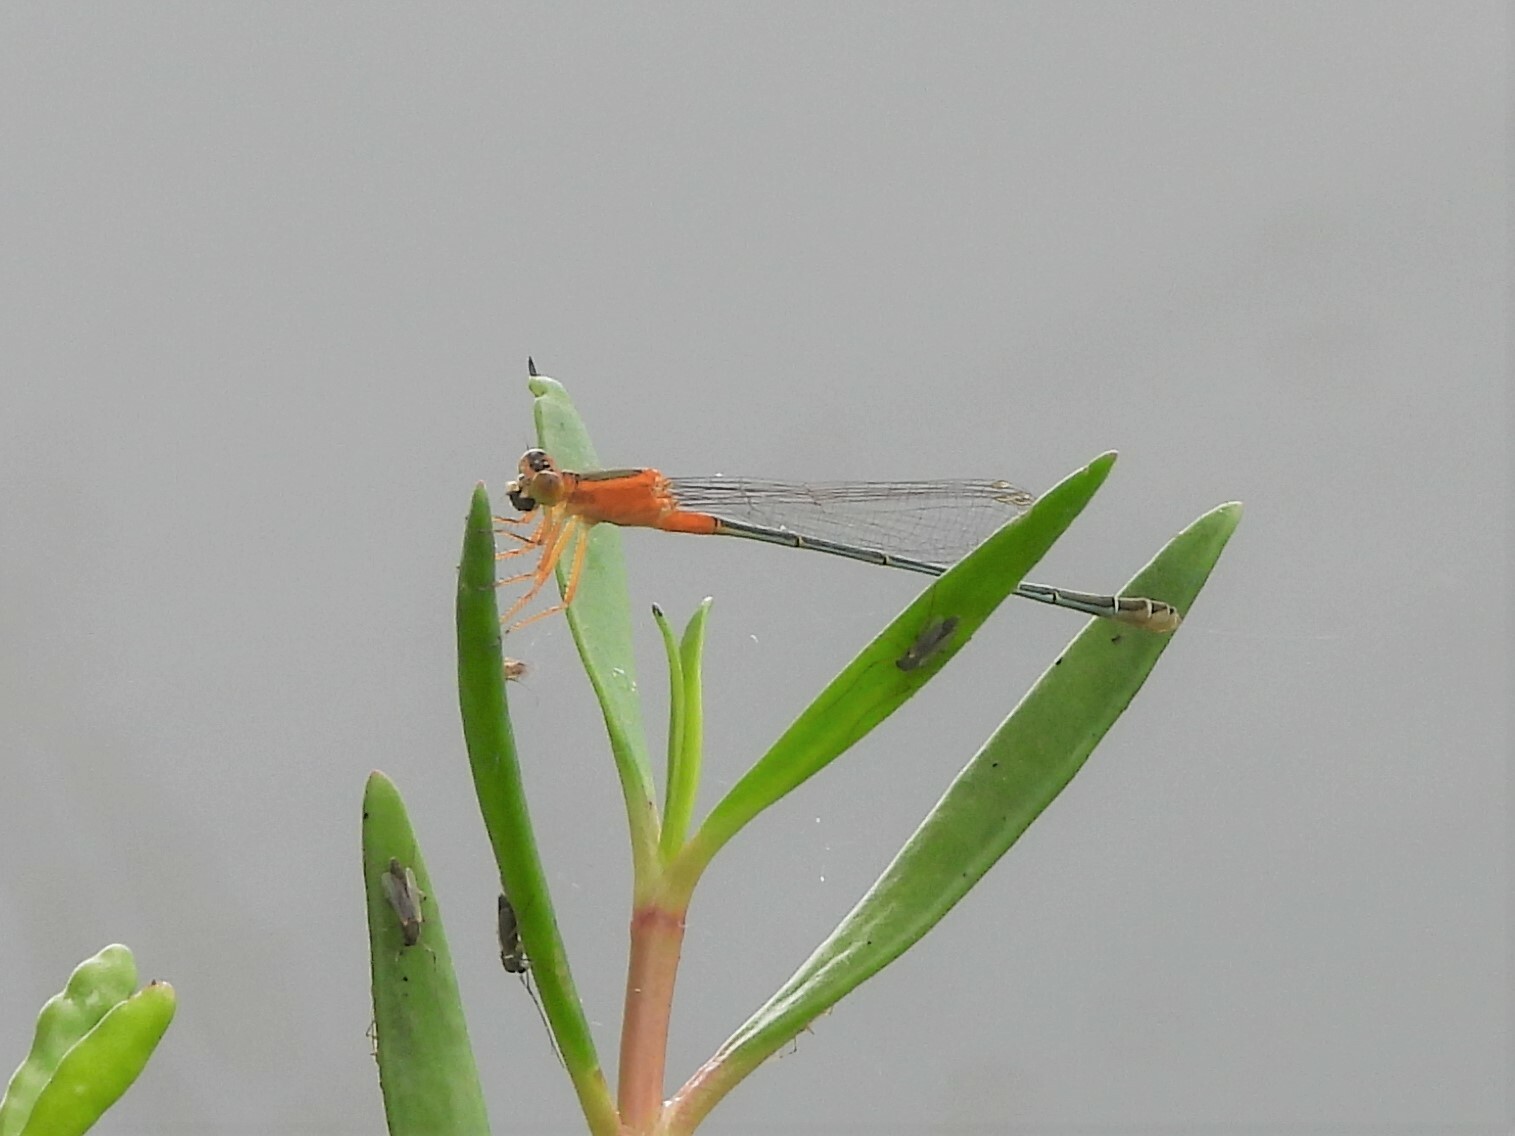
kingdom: Animalia
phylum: Arthropoda
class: Insecta
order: Odonata
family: Coenagrionidae
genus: Ischnura
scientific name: Ischnura senegalensis
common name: Tropical bluetail
